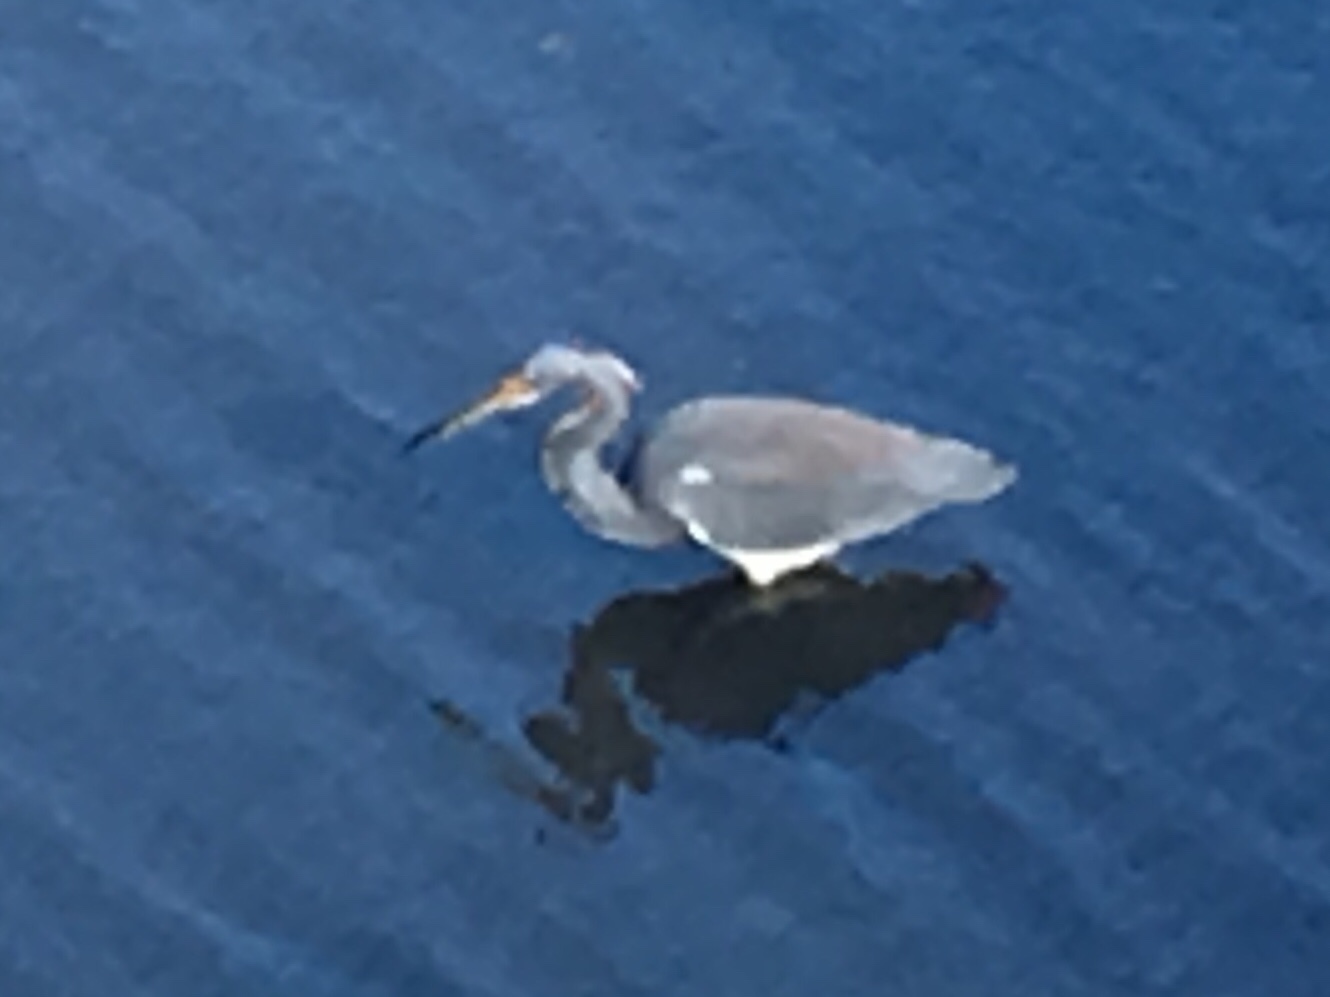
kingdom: Animalia
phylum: Chordata
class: Aves
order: Pelecaniformes
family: Ardeidae
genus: Egretta
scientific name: Egretta tricolor
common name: Tricolored heron
